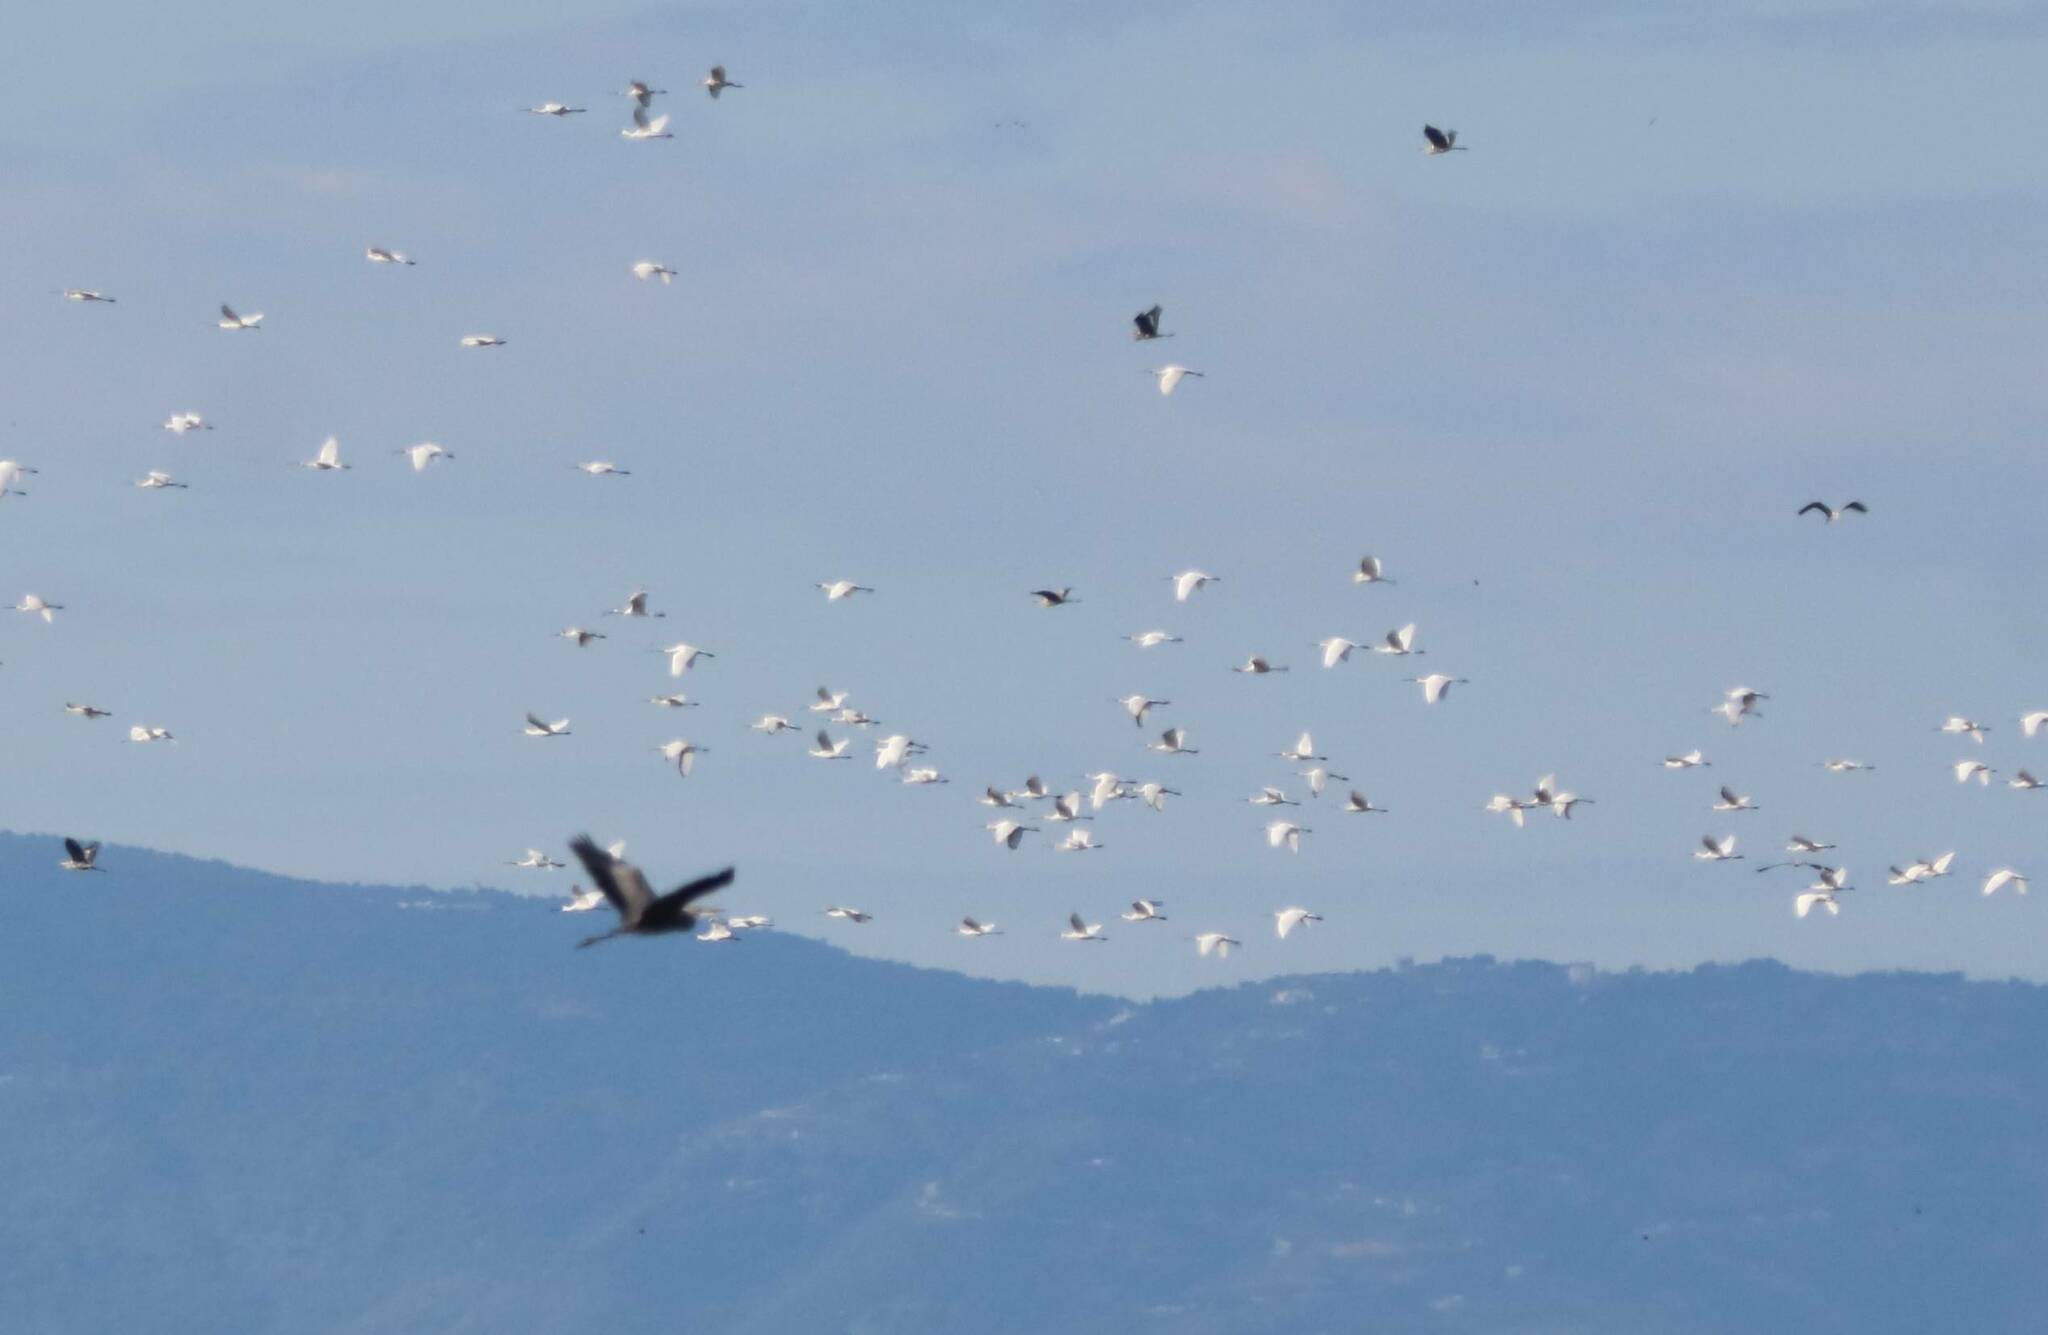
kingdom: Animalia
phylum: Chordata
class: Aves
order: Pelecaniformes
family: Ardeidae
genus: Ardea
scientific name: Ardea cinerea
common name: Grey heron
